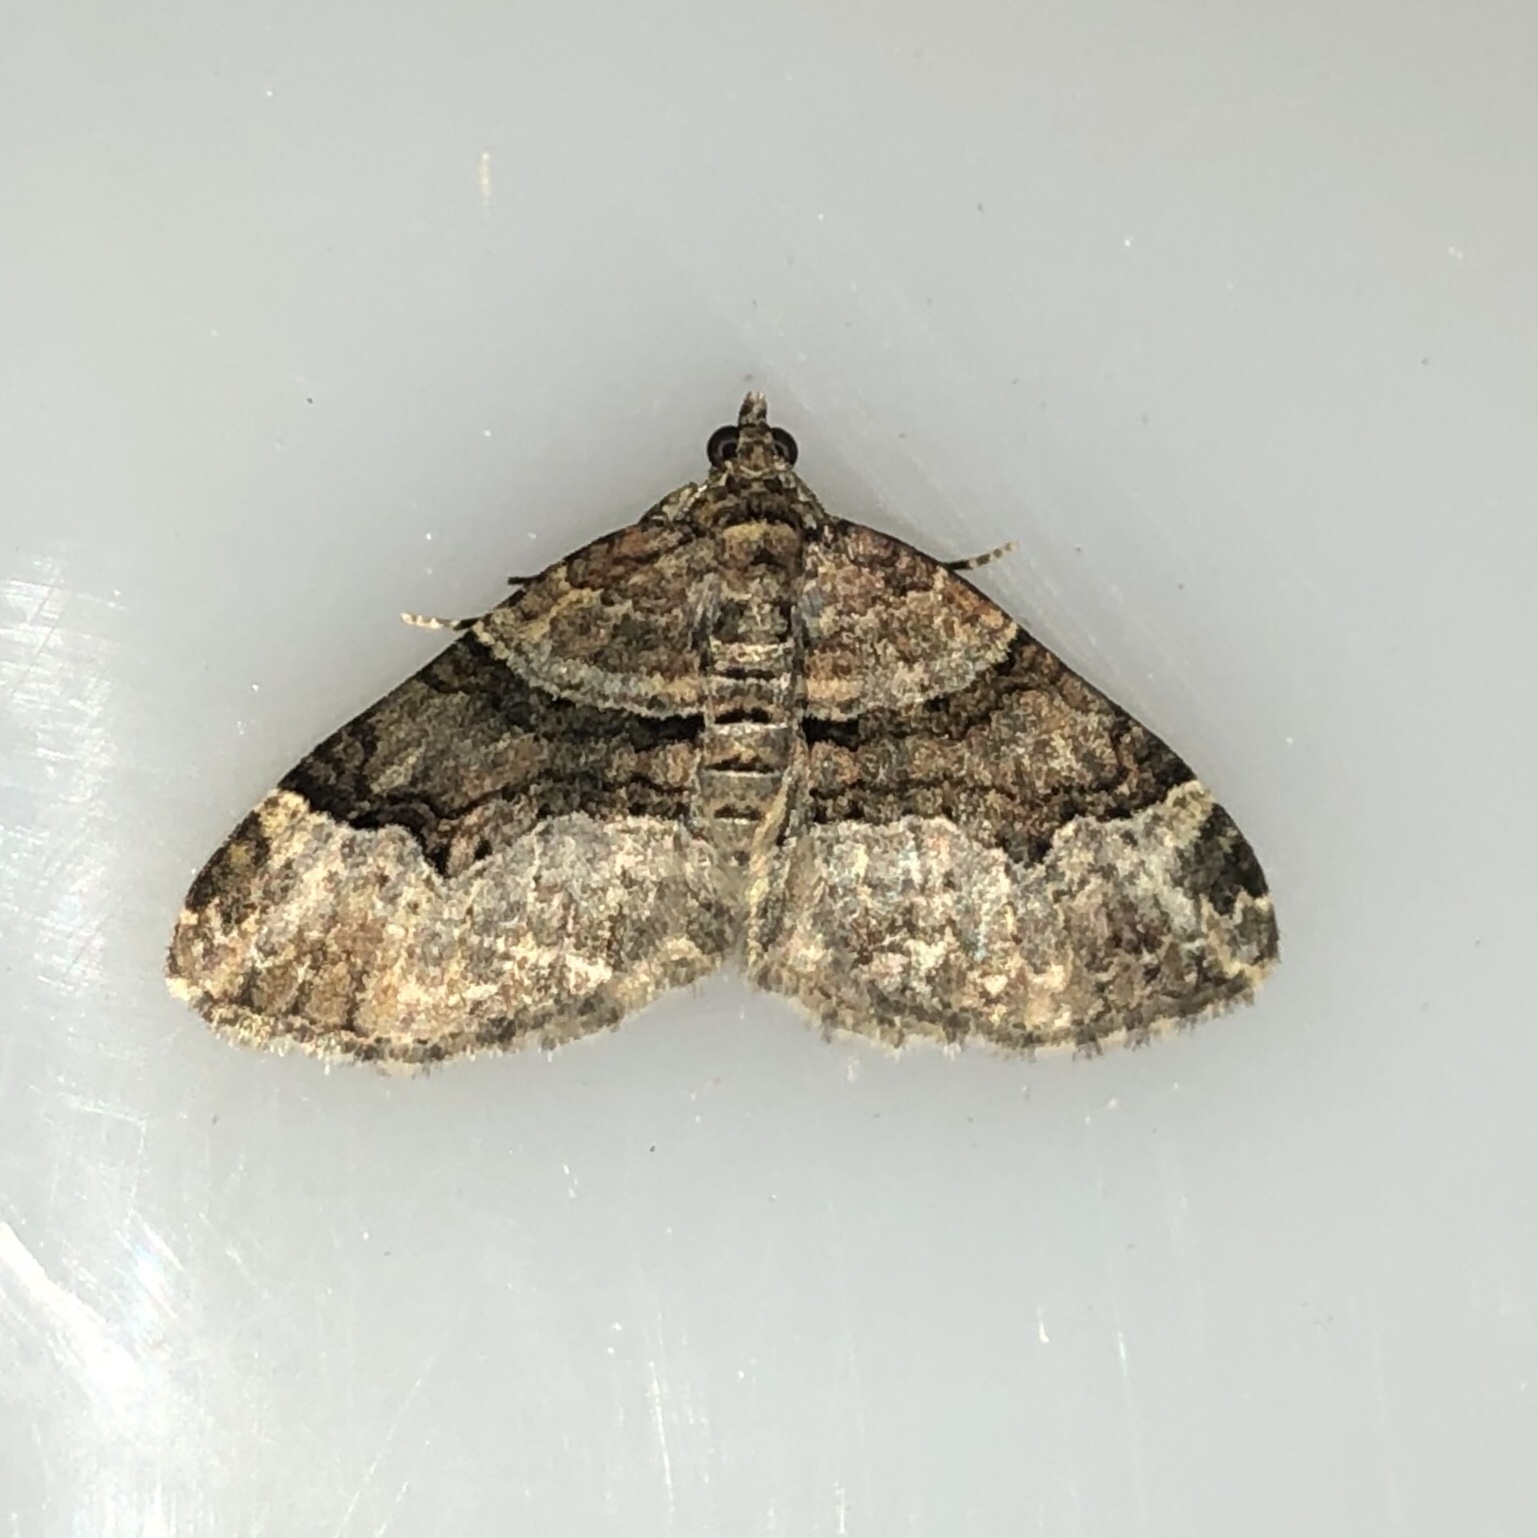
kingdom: Animalia
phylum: Arthropoda
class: Insecta
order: Lepidoptera
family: Geometridae
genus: Xanthorhoe
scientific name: Xanthorhoe lacustrata
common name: Toothed brown carpet
